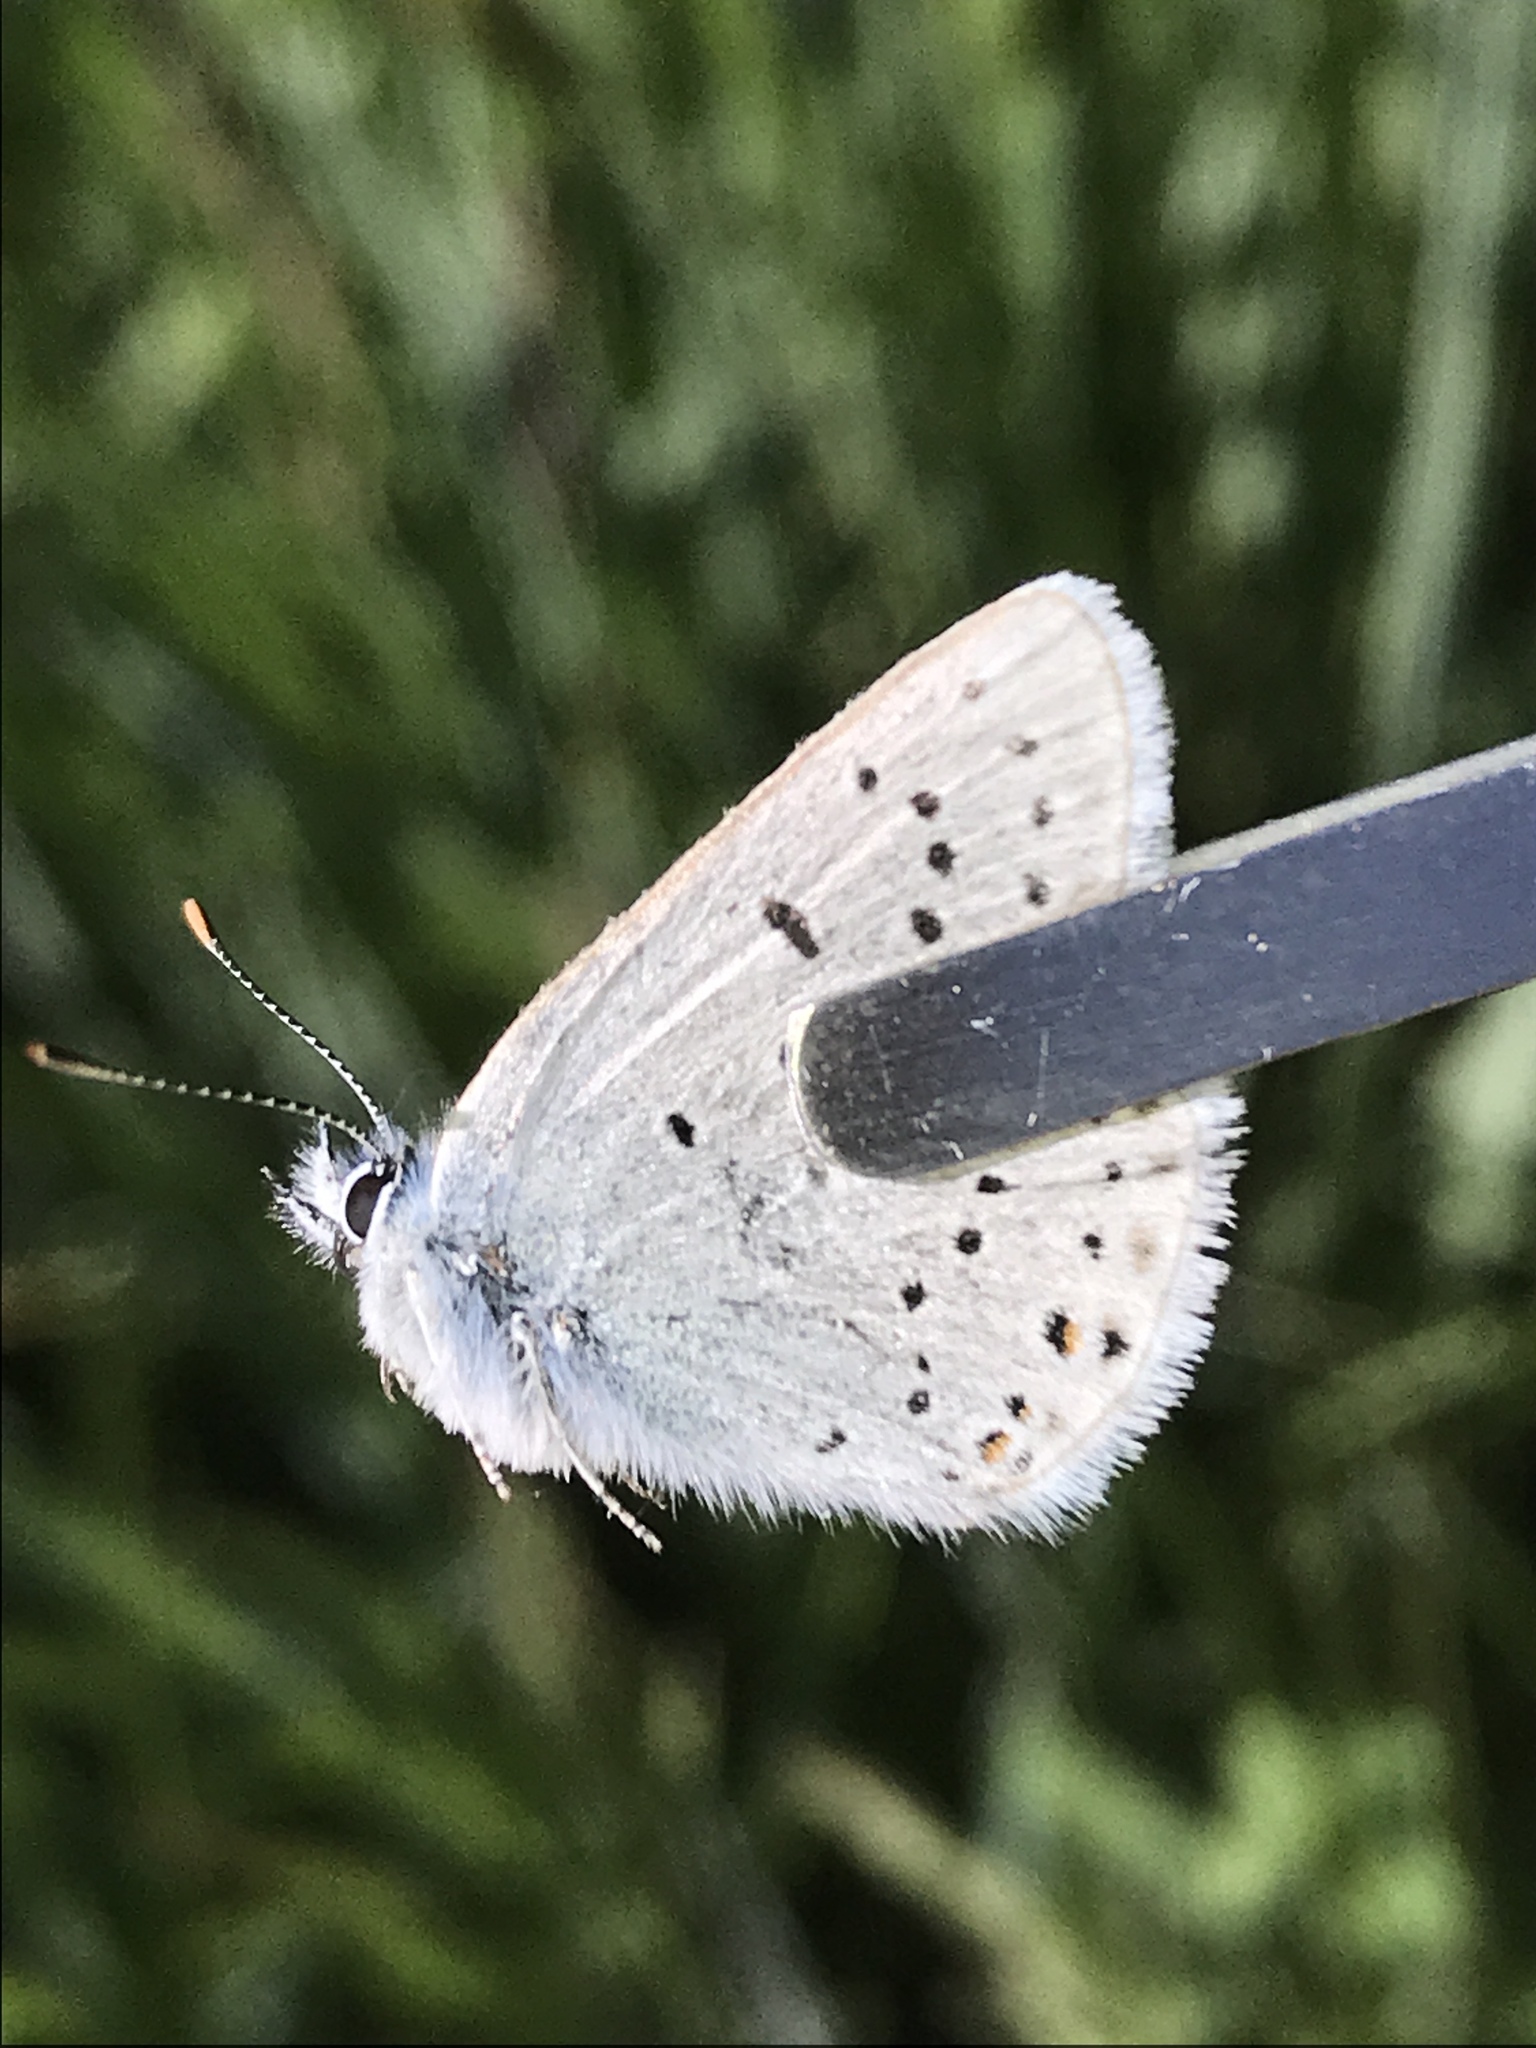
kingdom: Animalia
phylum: Arthropoda
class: Insecta
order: Lepidoptera
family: Lycaenidae
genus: Icaricia
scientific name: Icaricia saepiolus
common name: Greenish blue
